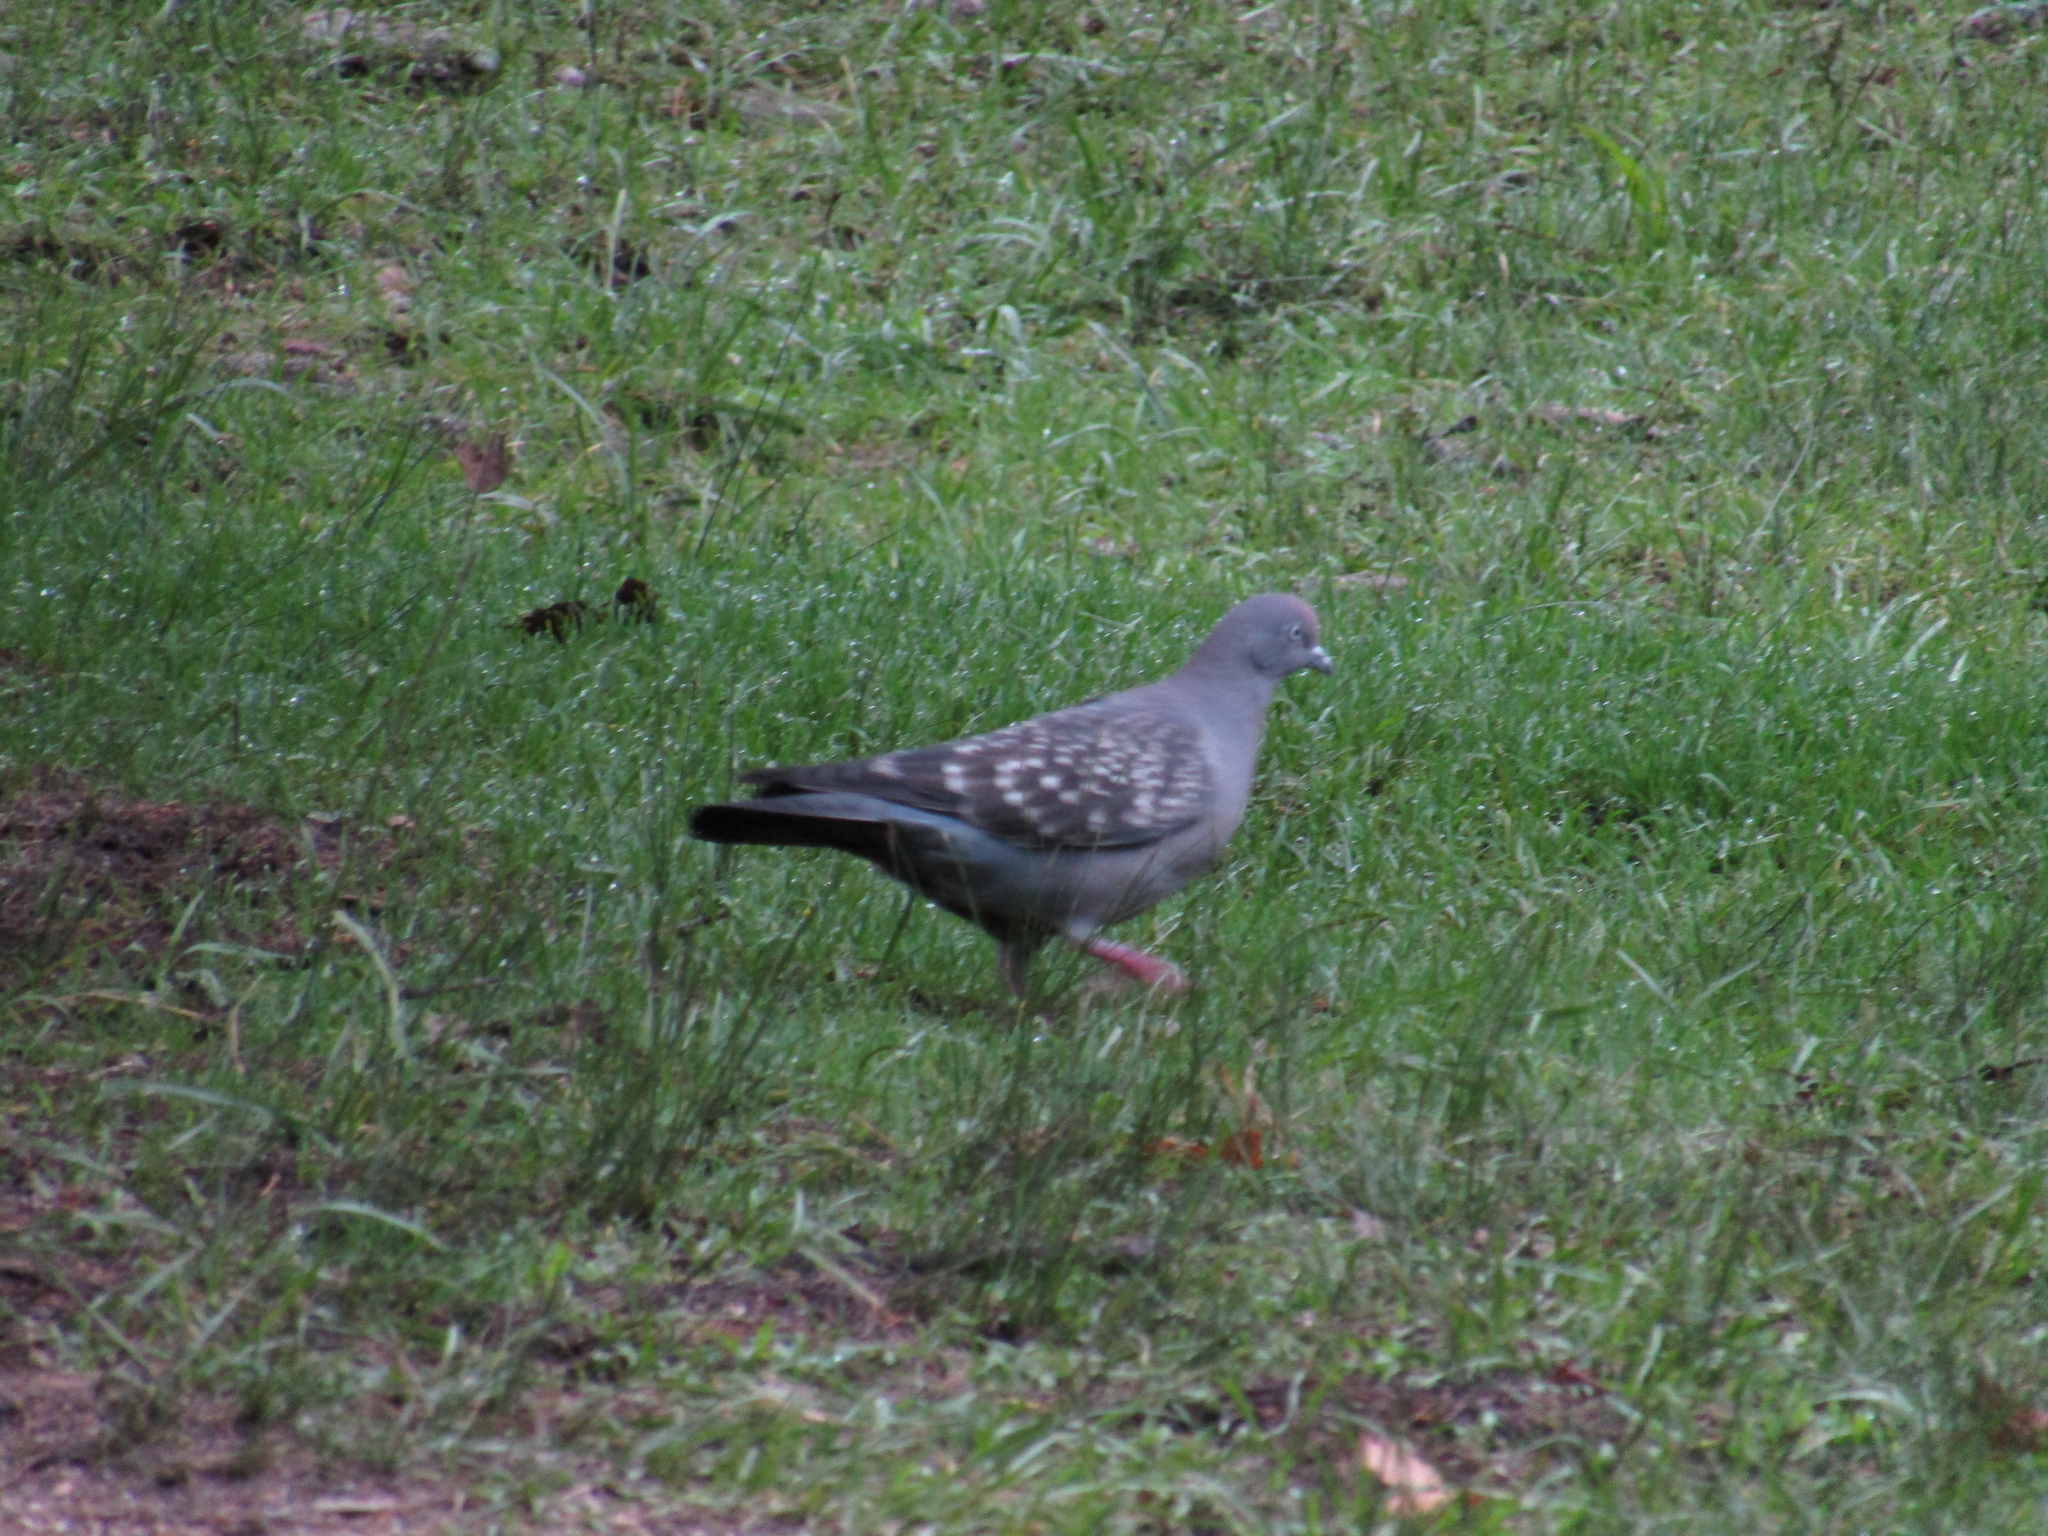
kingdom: Animalia
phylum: Chordata
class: Aves
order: Columbiformes
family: Columbidae
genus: Patagioenas
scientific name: Patagioenas maculosa
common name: Spot-winged pigeon
